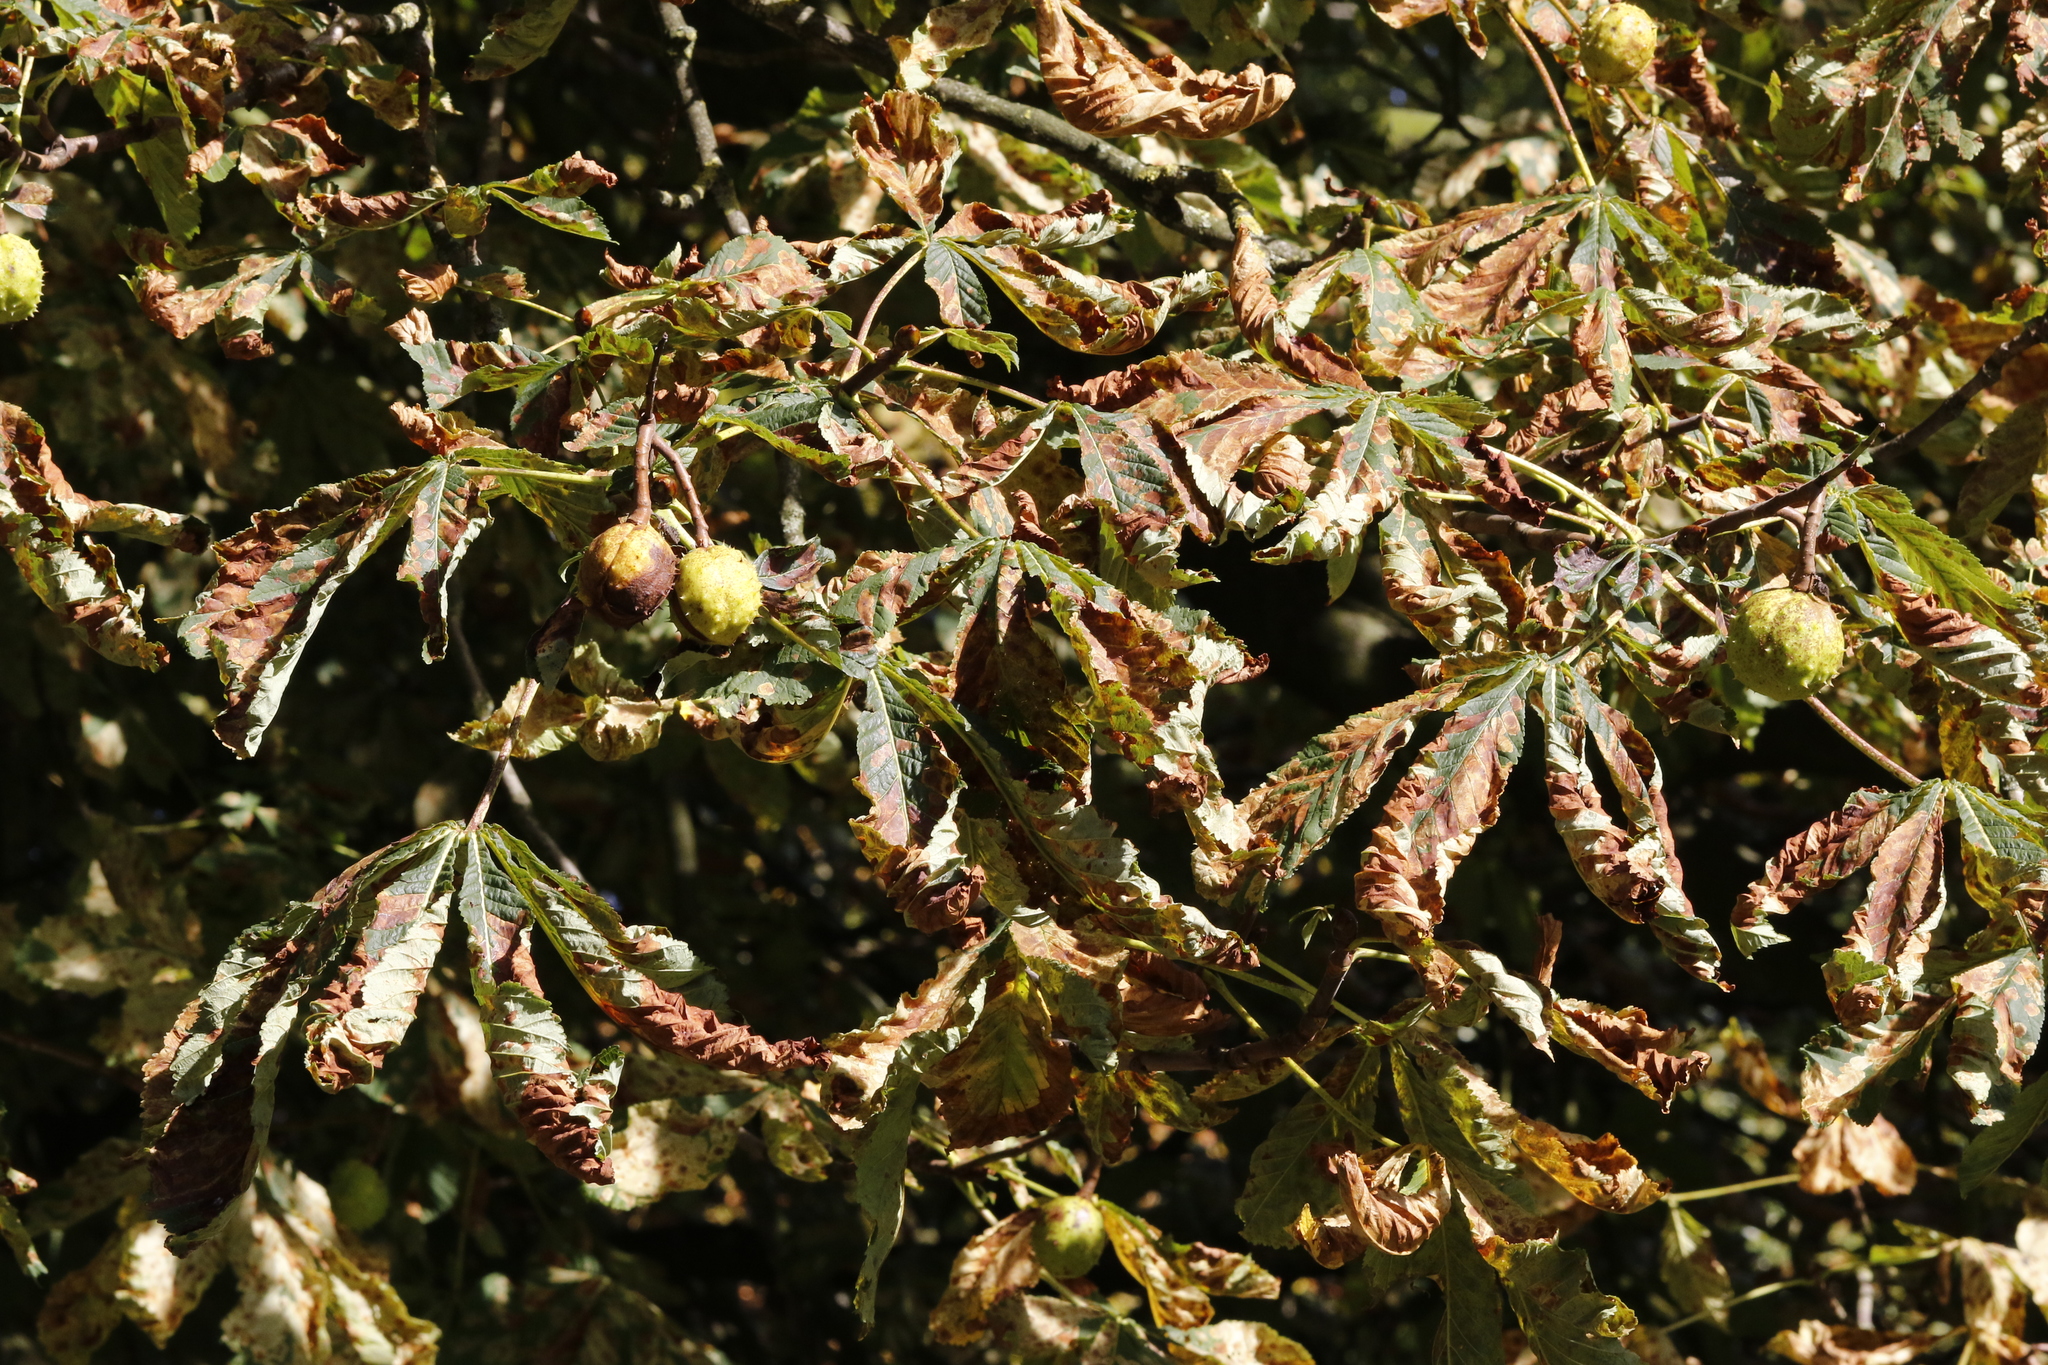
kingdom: Animalia
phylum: Arthropoda
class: Insecta
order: Lepidoptera
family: Gracillariidae
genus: Cameraria
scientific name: Cameraria ohridella
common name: Horse-chestnut leaf-miner
